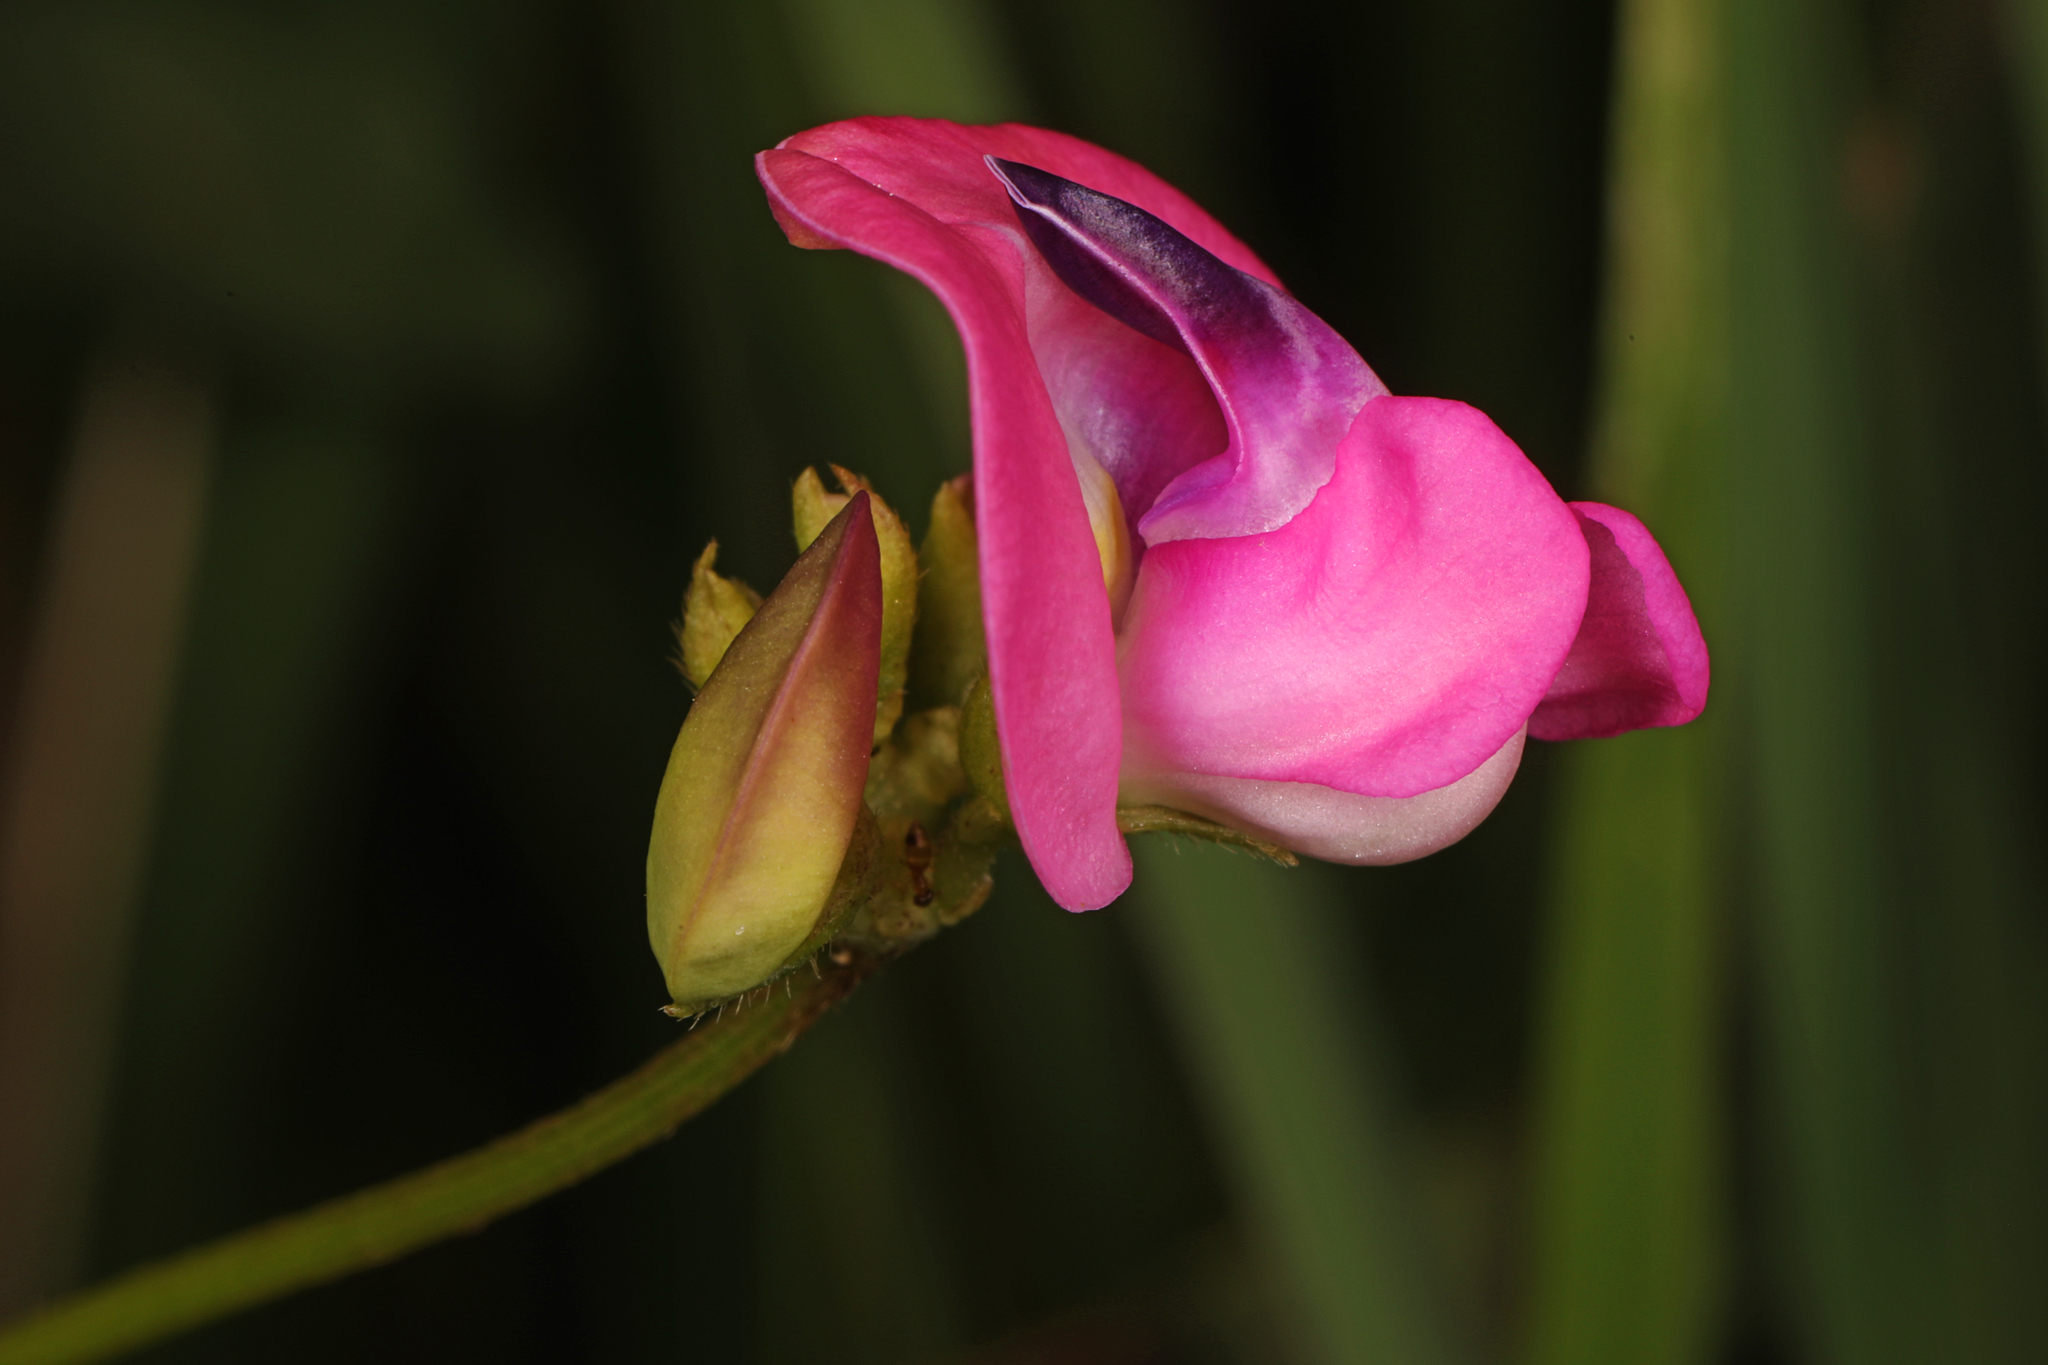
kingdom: Plantae
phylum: Tracheophyta
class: Magnoliopsida
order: Fabales
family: Fabaceae
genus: Strophostyles
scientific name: Strophostyles umbellata
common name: Perennial wild bean
